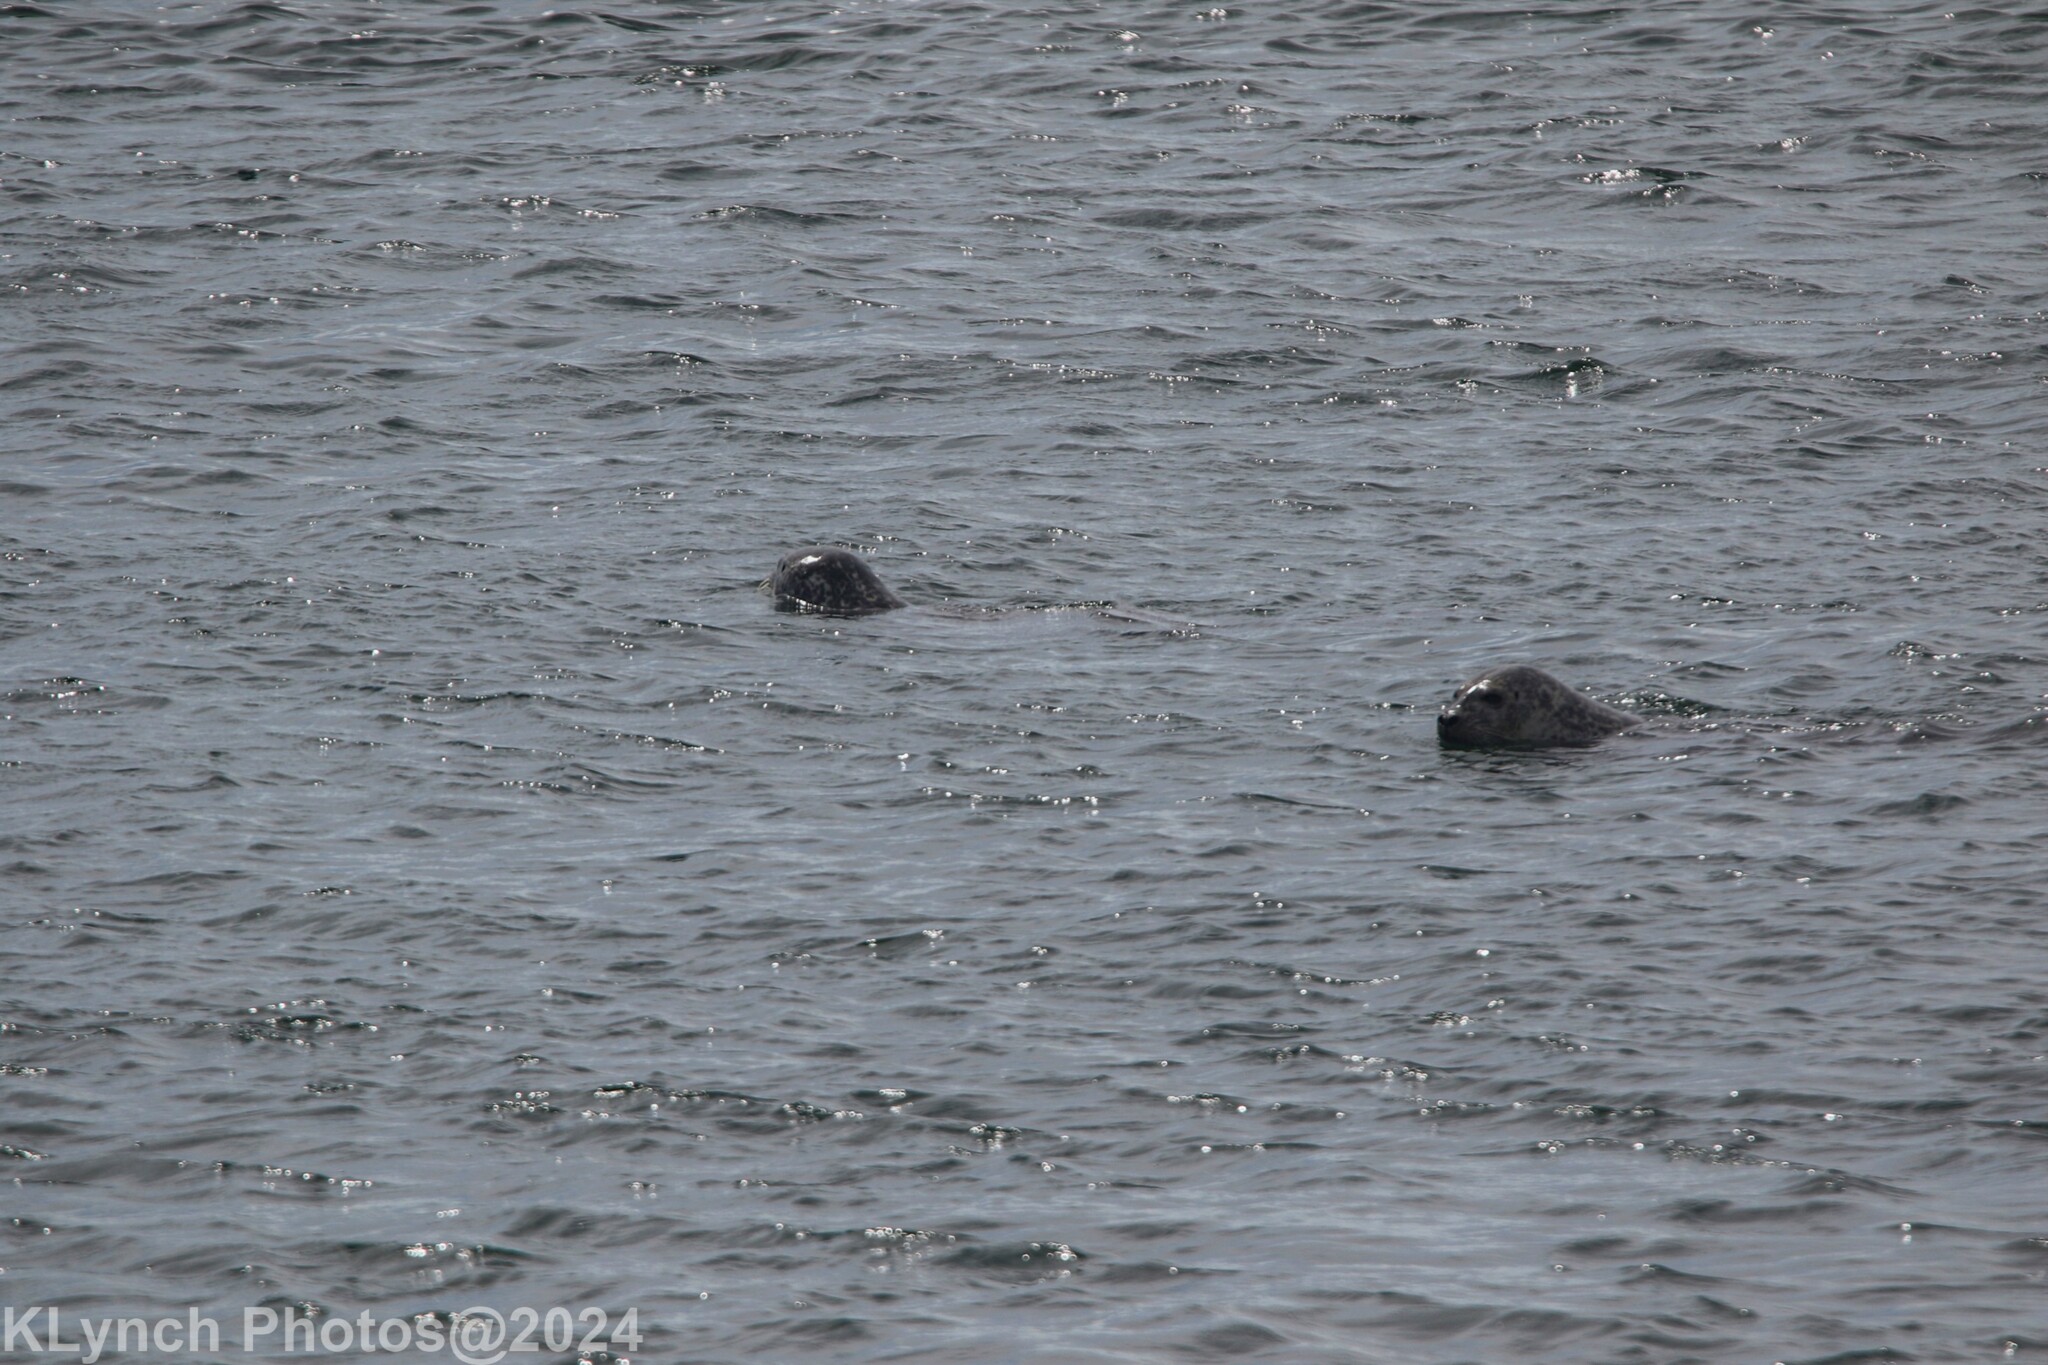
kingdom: Animalia
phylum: Chordata
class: Mammalia
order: Carnivora
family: Phocidae
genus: Phoca
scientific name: Phoca vitulina
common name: Harbor seal
